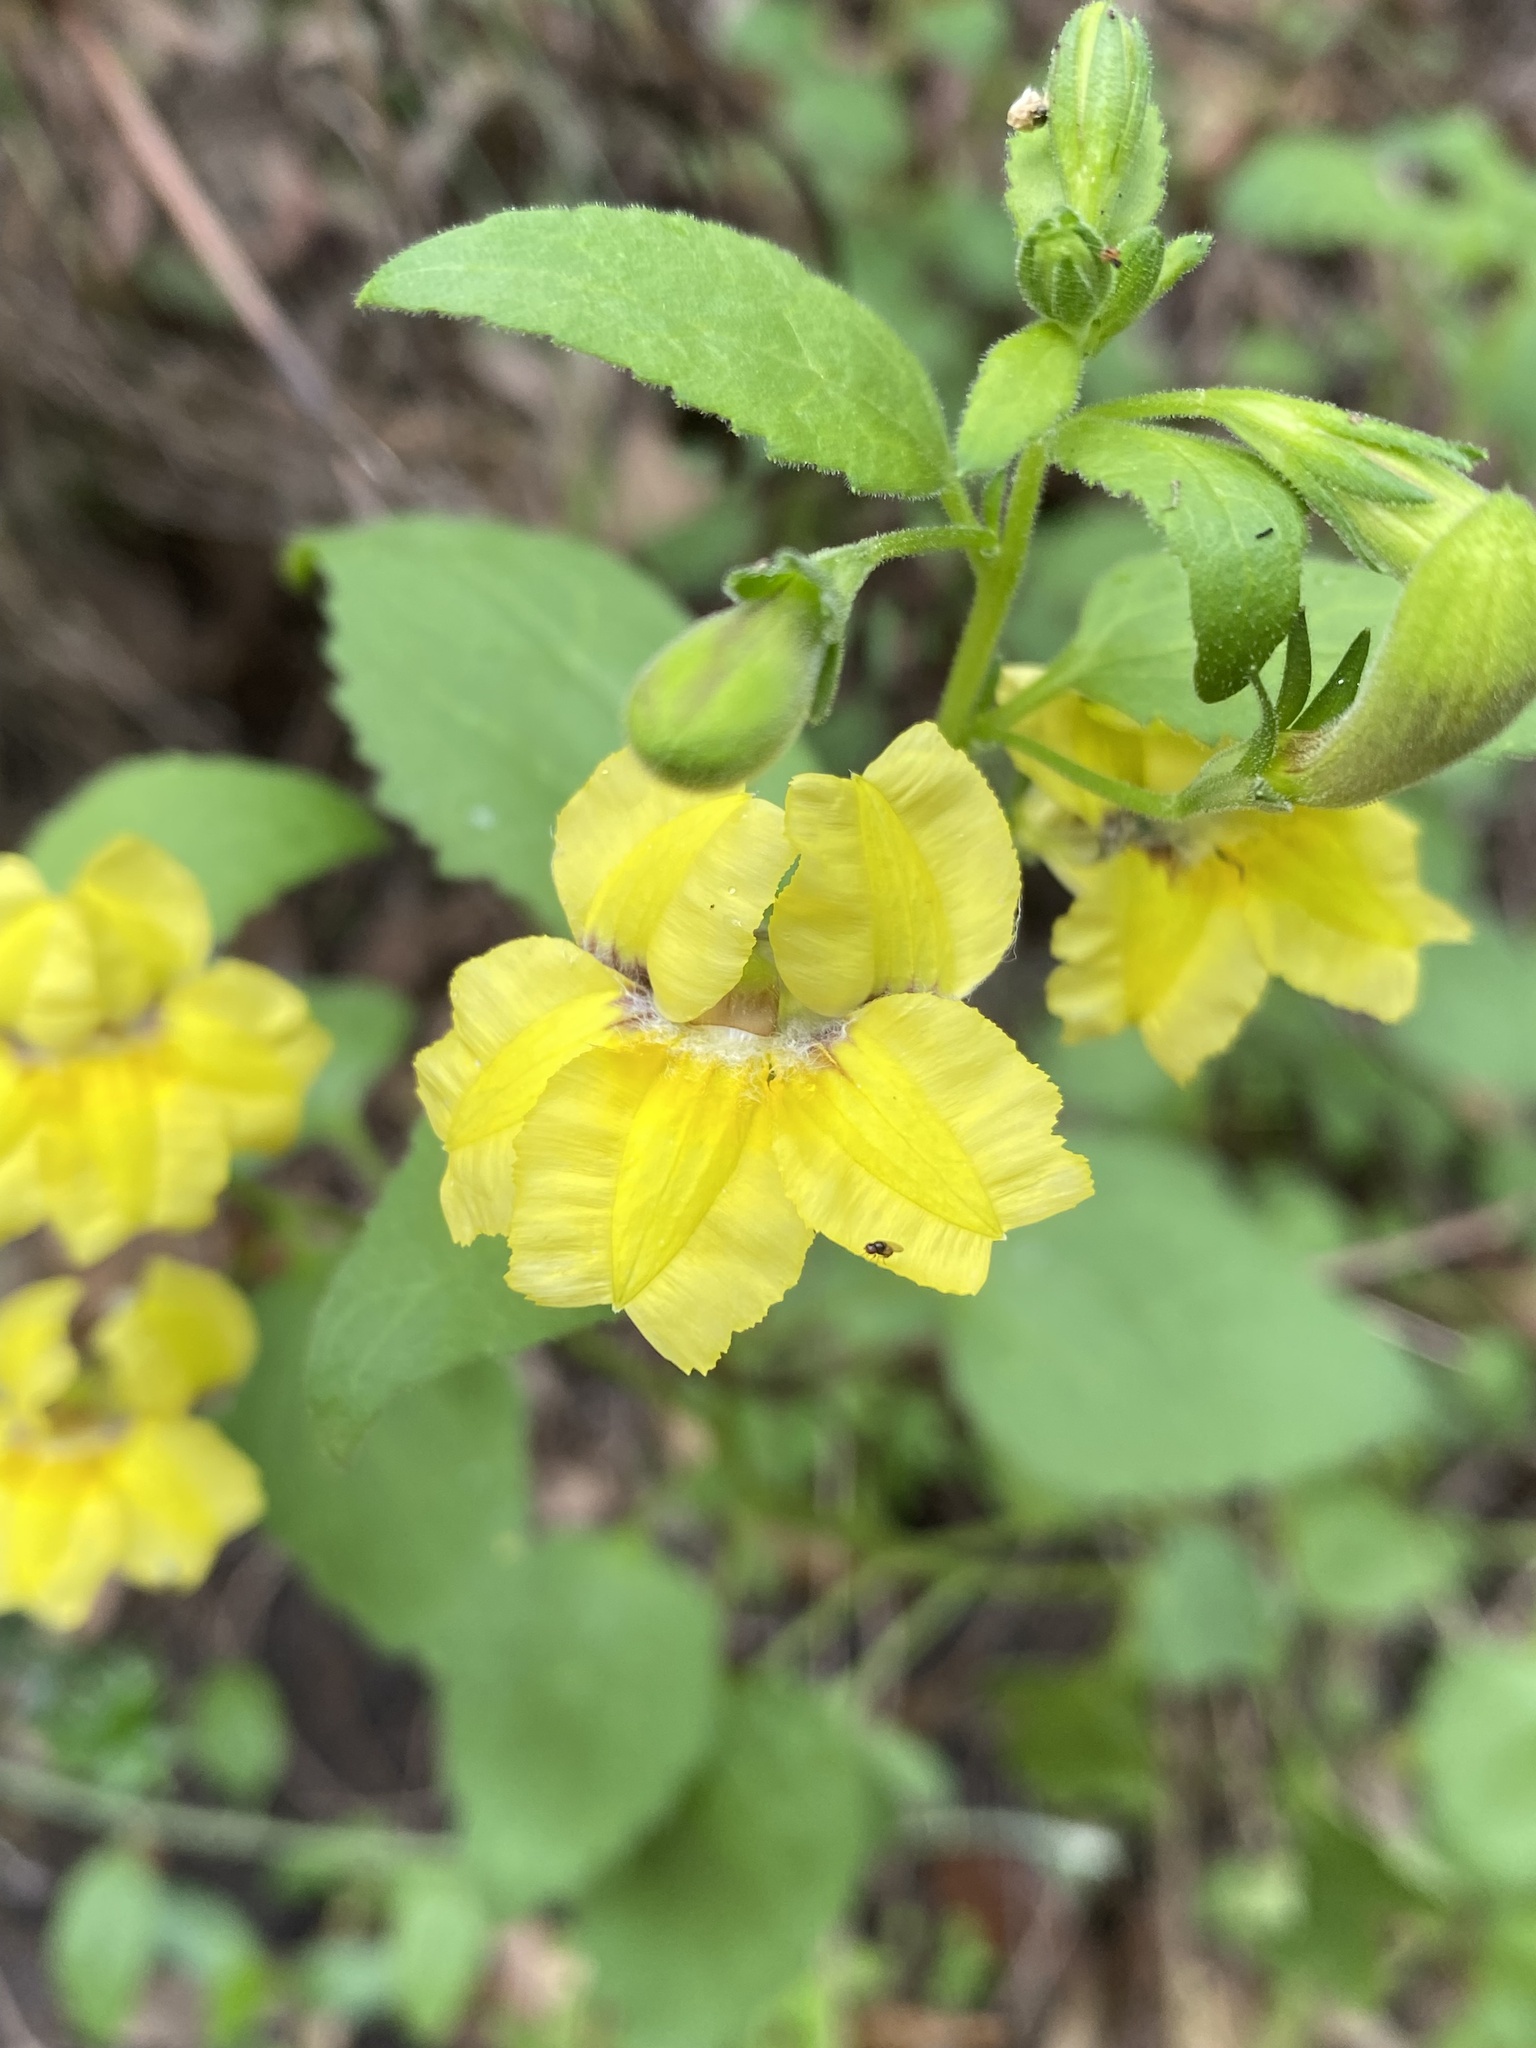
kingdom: Plantae
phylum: Tracheophyta
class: Magnoliopsida
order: Asterales
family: Goodeniaceae
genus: Goodenia
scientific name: Goodenia grandiflora
